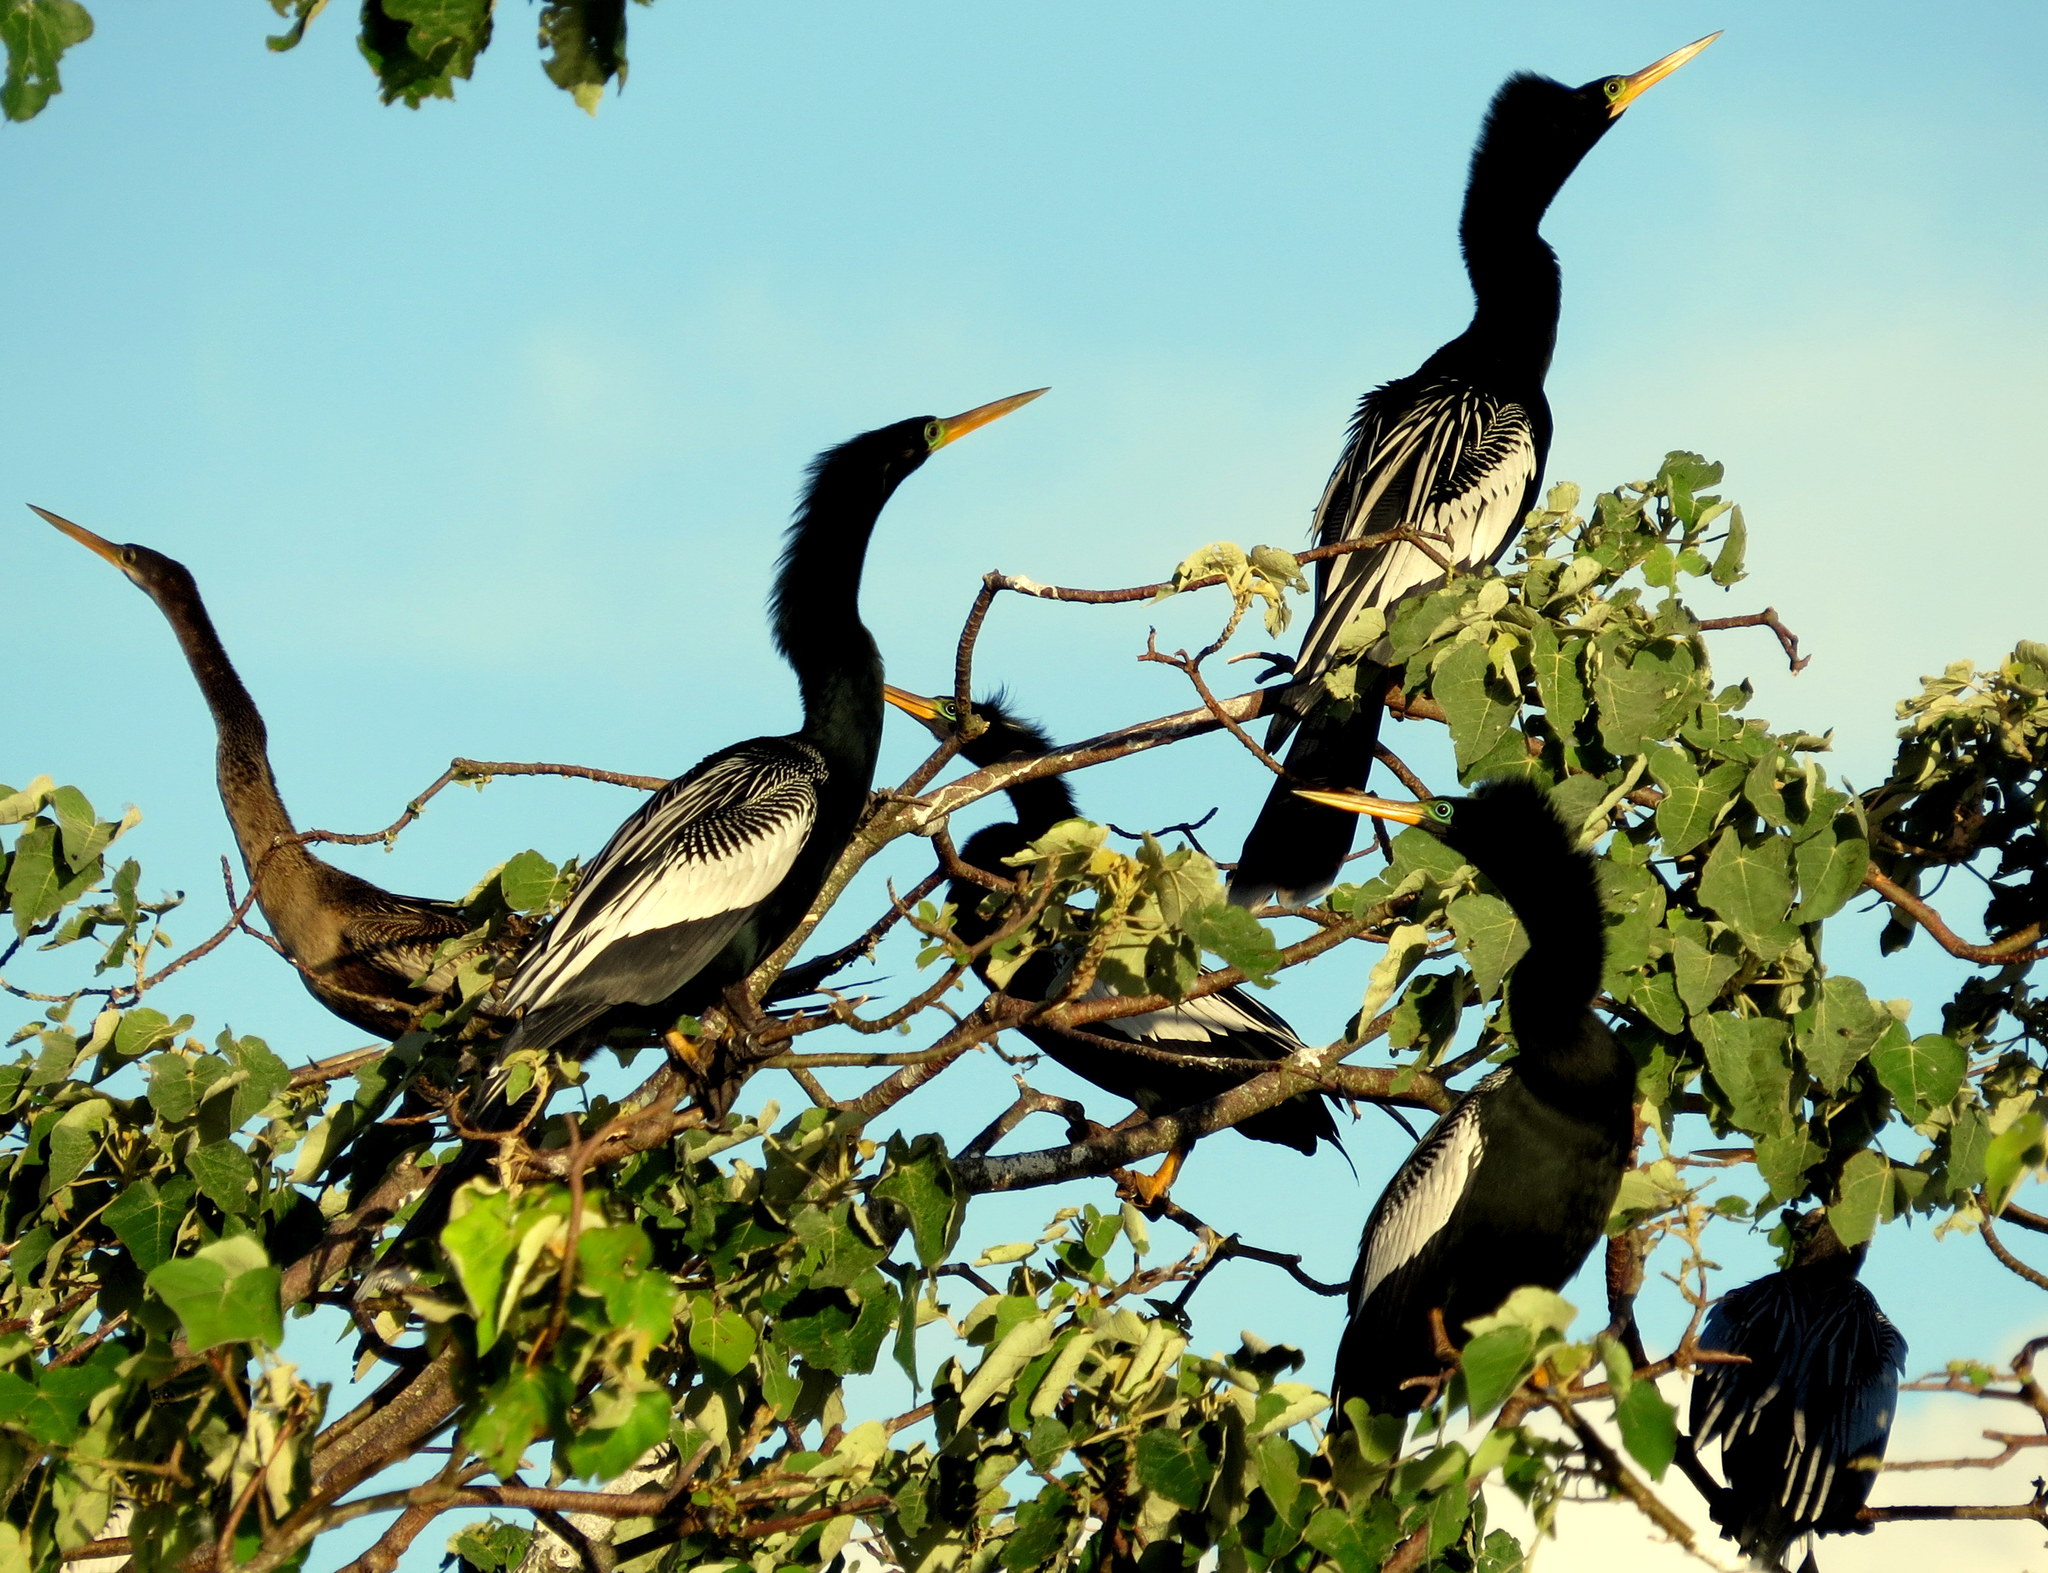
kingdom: Animalia
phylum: Chordata
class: Aves
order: Suliformes
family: Anhingidae
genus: Anhinga
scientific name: Anhinga anhinga
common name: Anhinga
